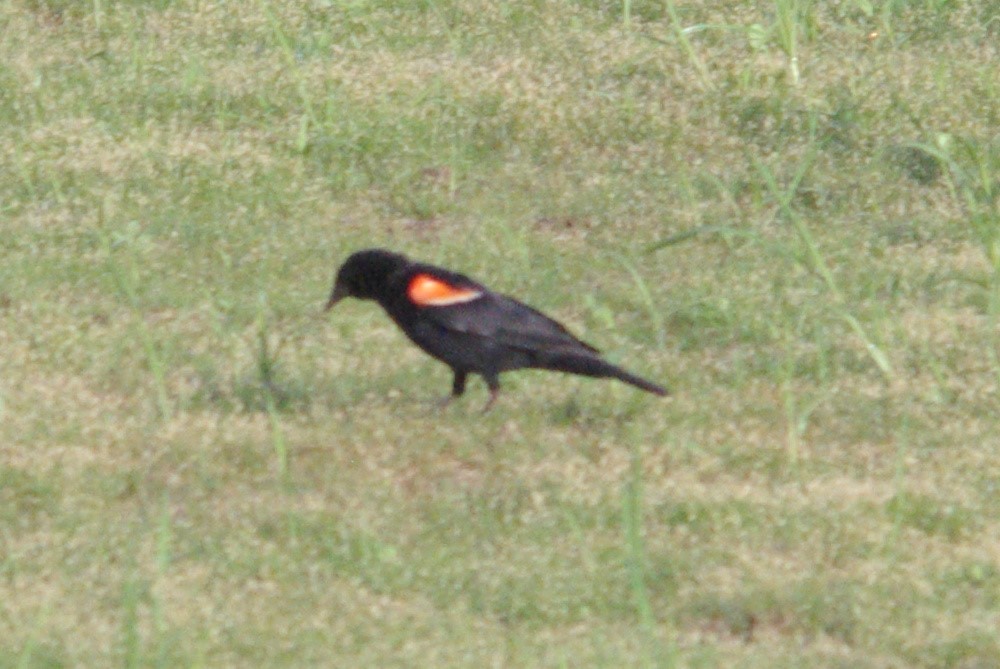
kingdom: Animalia
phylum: Chordata
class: Aves
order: Passeriformes
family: Icteridae
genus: Agelaius
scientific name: Agelaius phoeniceus
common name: Red-winged blackbird
